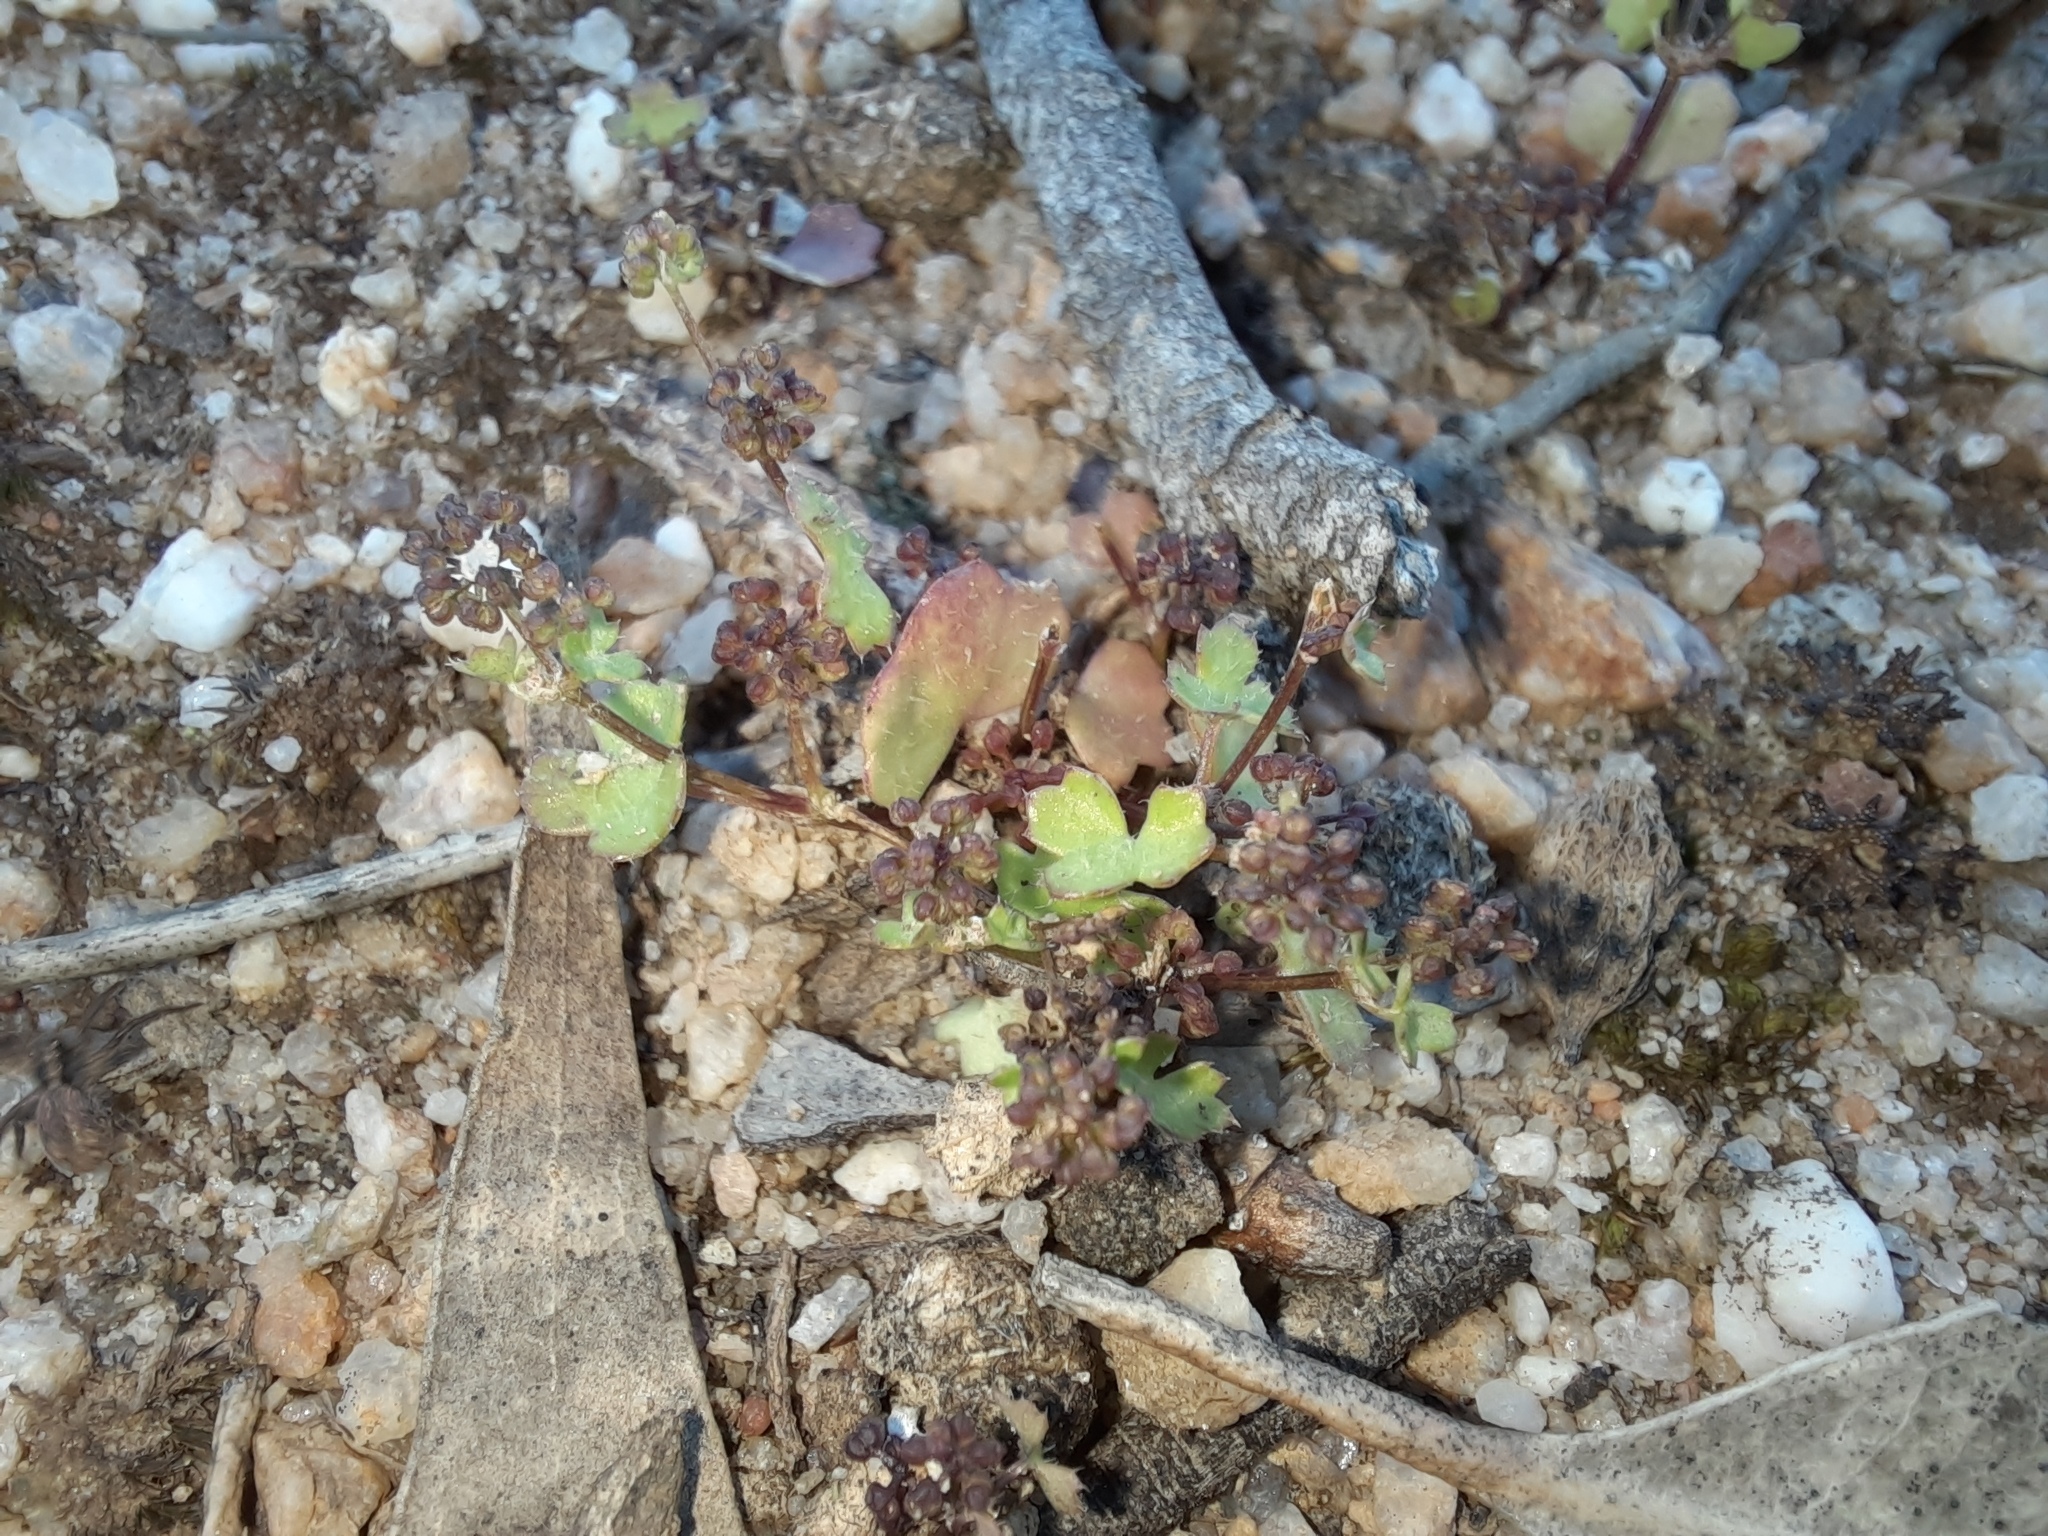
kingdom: Plantae
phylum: Tracheophyta
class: Magnoliopsida
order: Apiales
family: Araliaceae
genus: Hydrocotyle
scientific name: Hydrocotyle callicarpa
